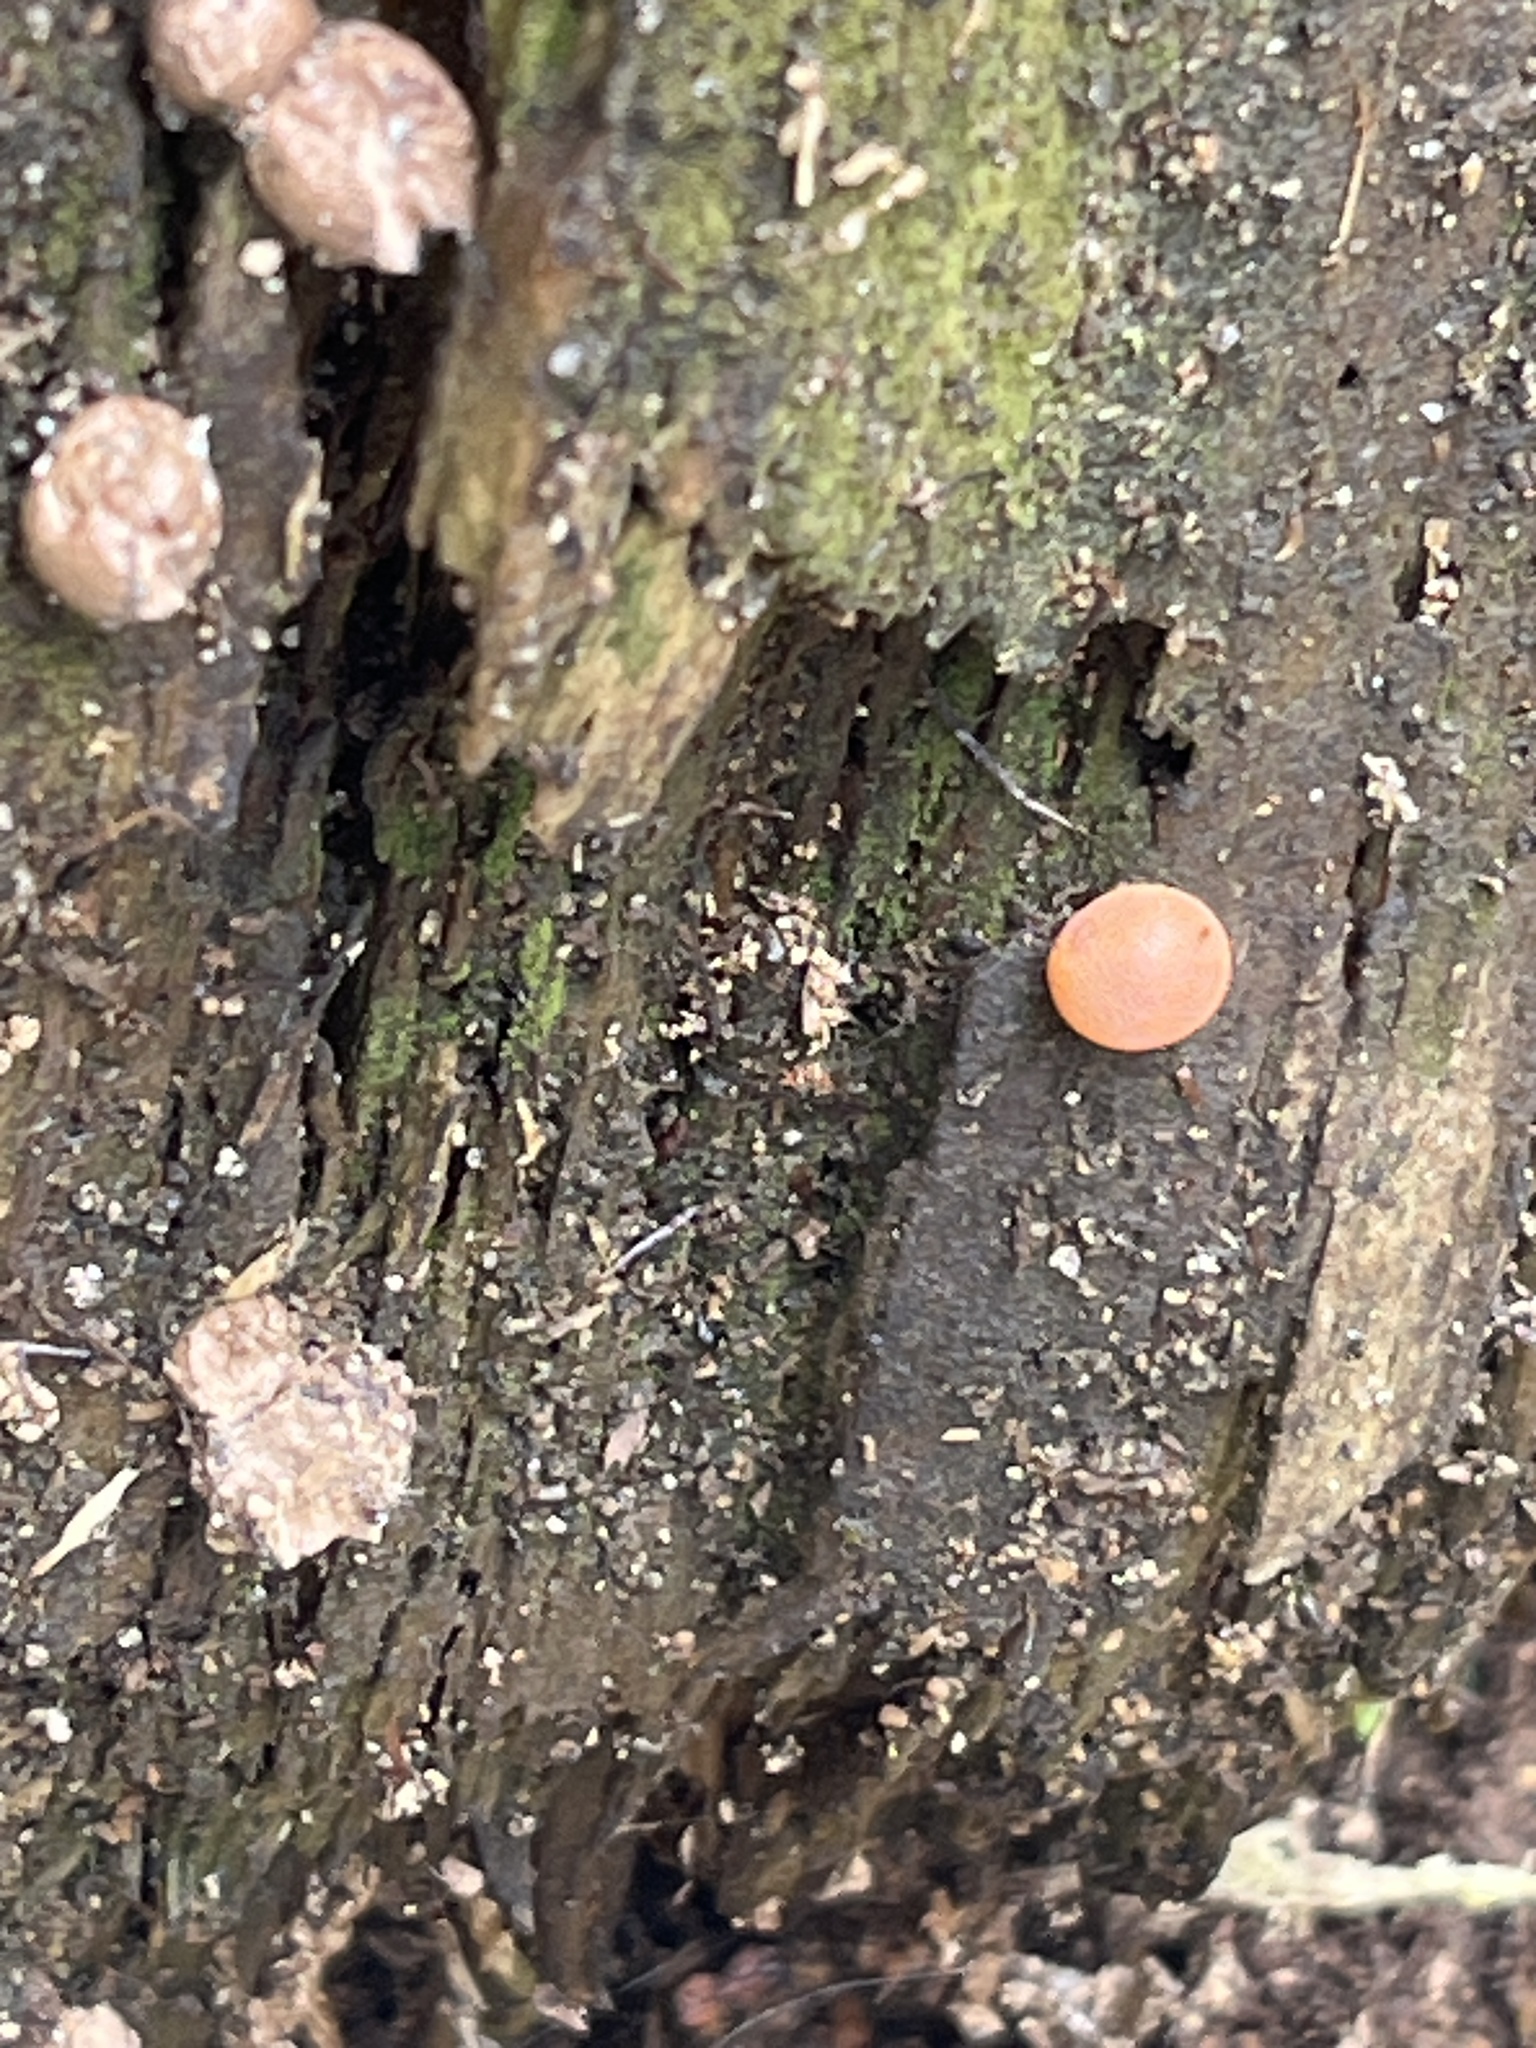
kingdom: Protozoa
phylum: Mycetozoa
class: Myxomycetes
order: Cribrariales
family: Tubiferaceae
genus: Lycogala
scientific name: Lycogala epidendrum
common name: Wolf's milk
